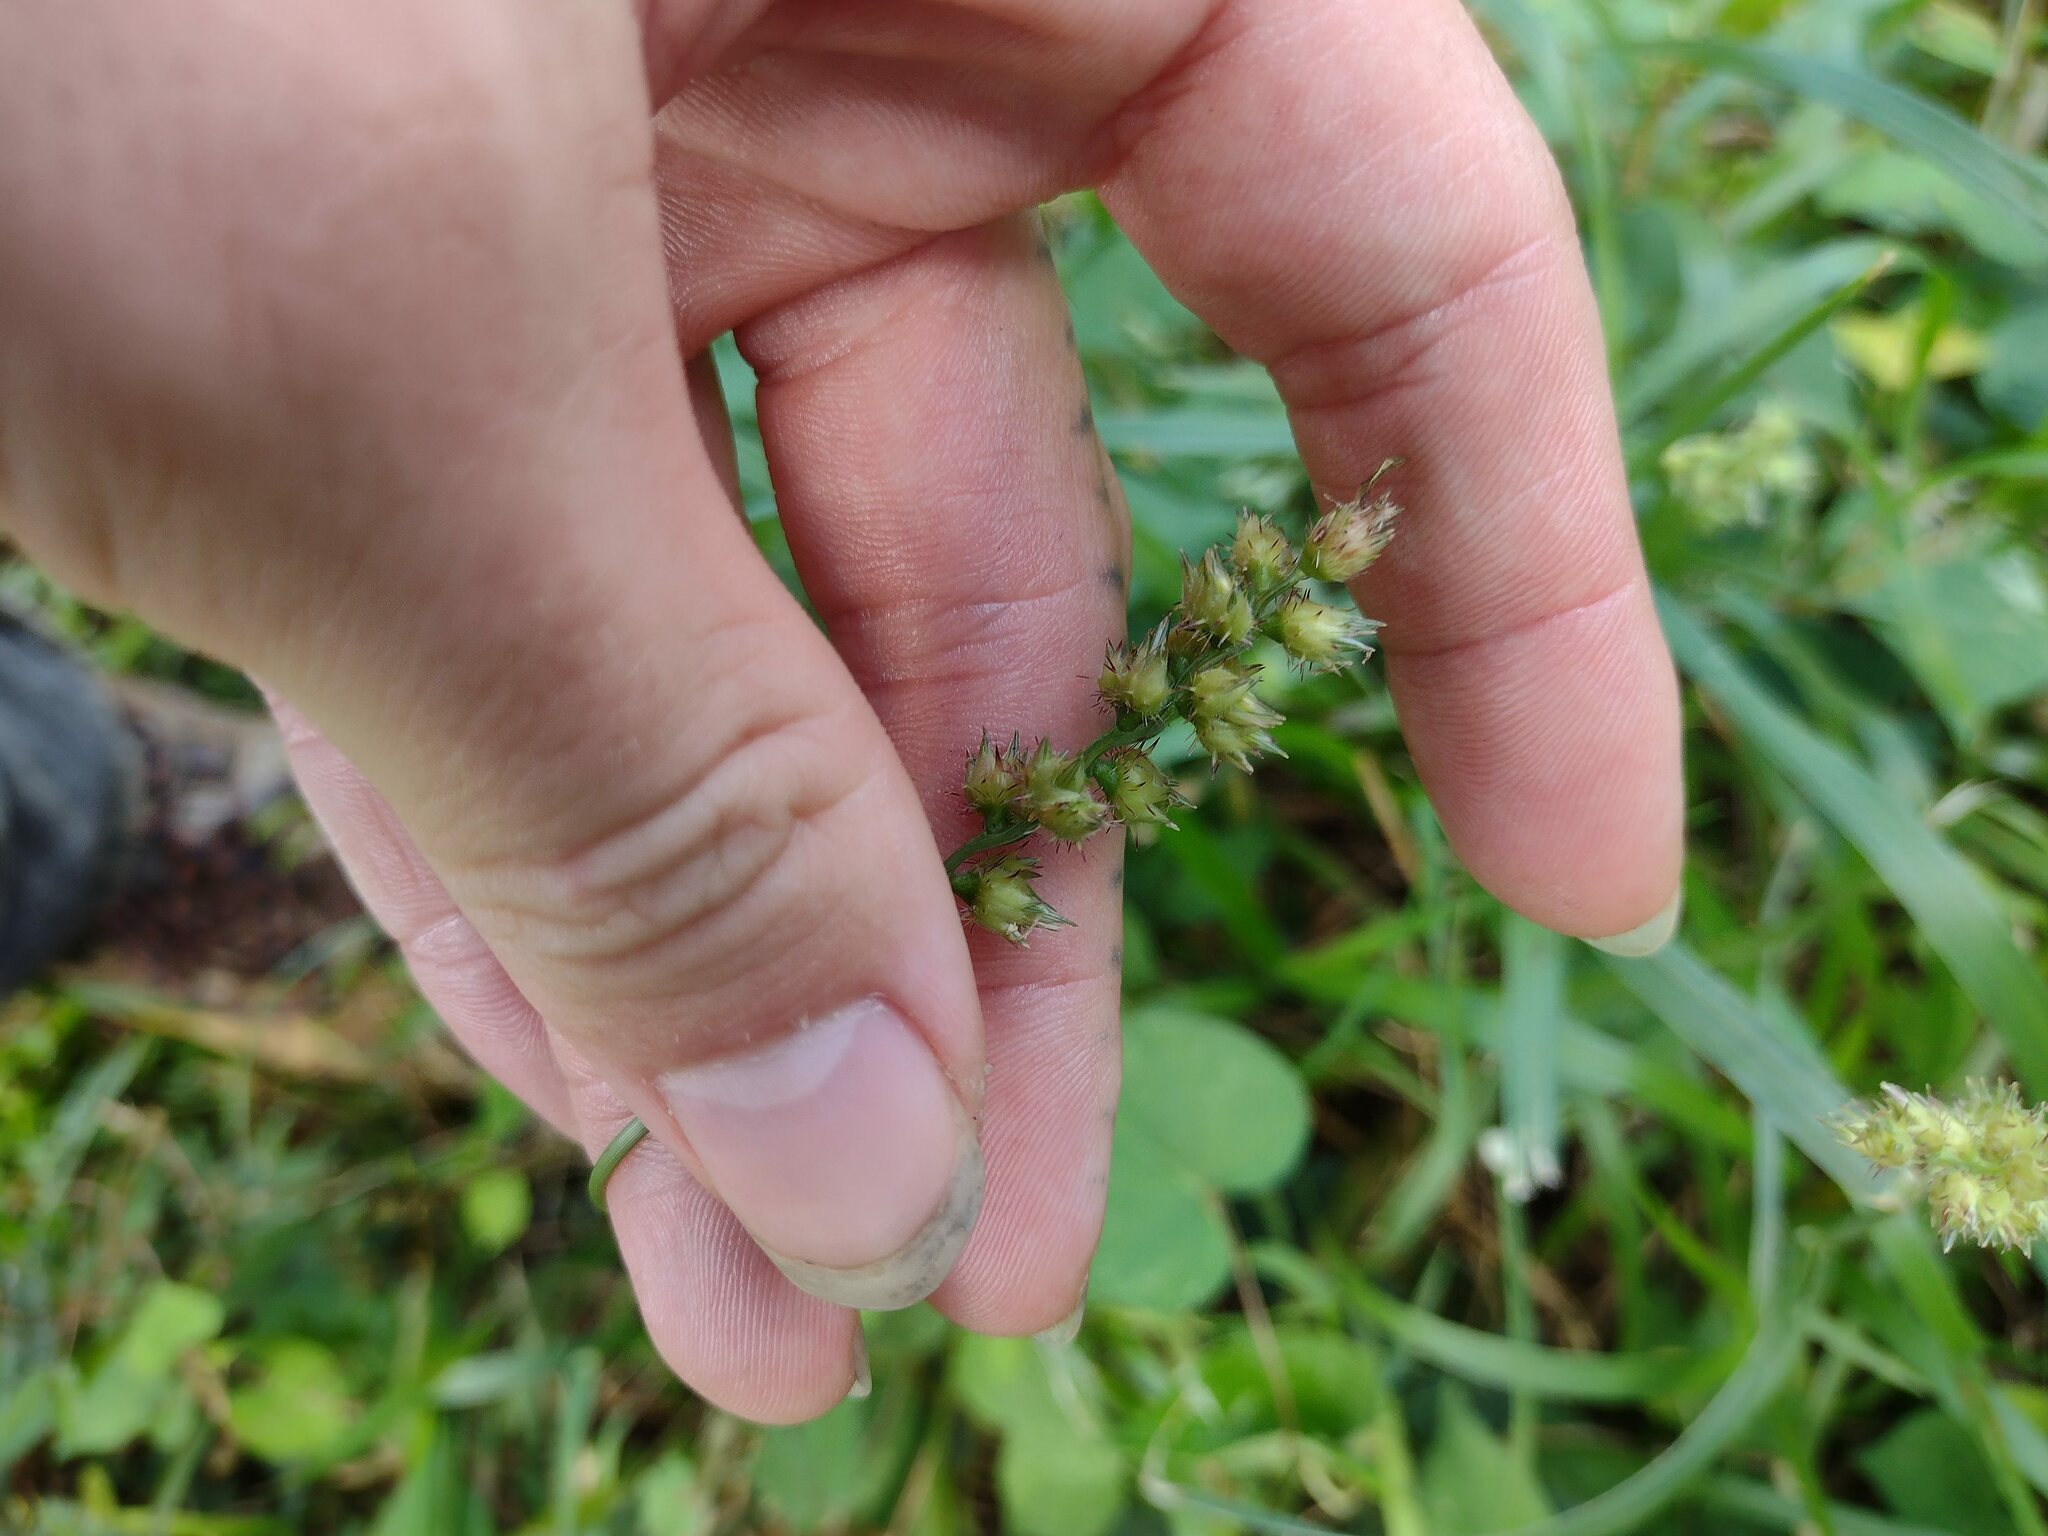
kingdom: Plantae
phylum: Tracheophyta
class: Liliopsida
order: Poales
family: Poaceae
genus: Cenchrus
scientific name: Cenchrus echinatus
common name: Southern sandbur
